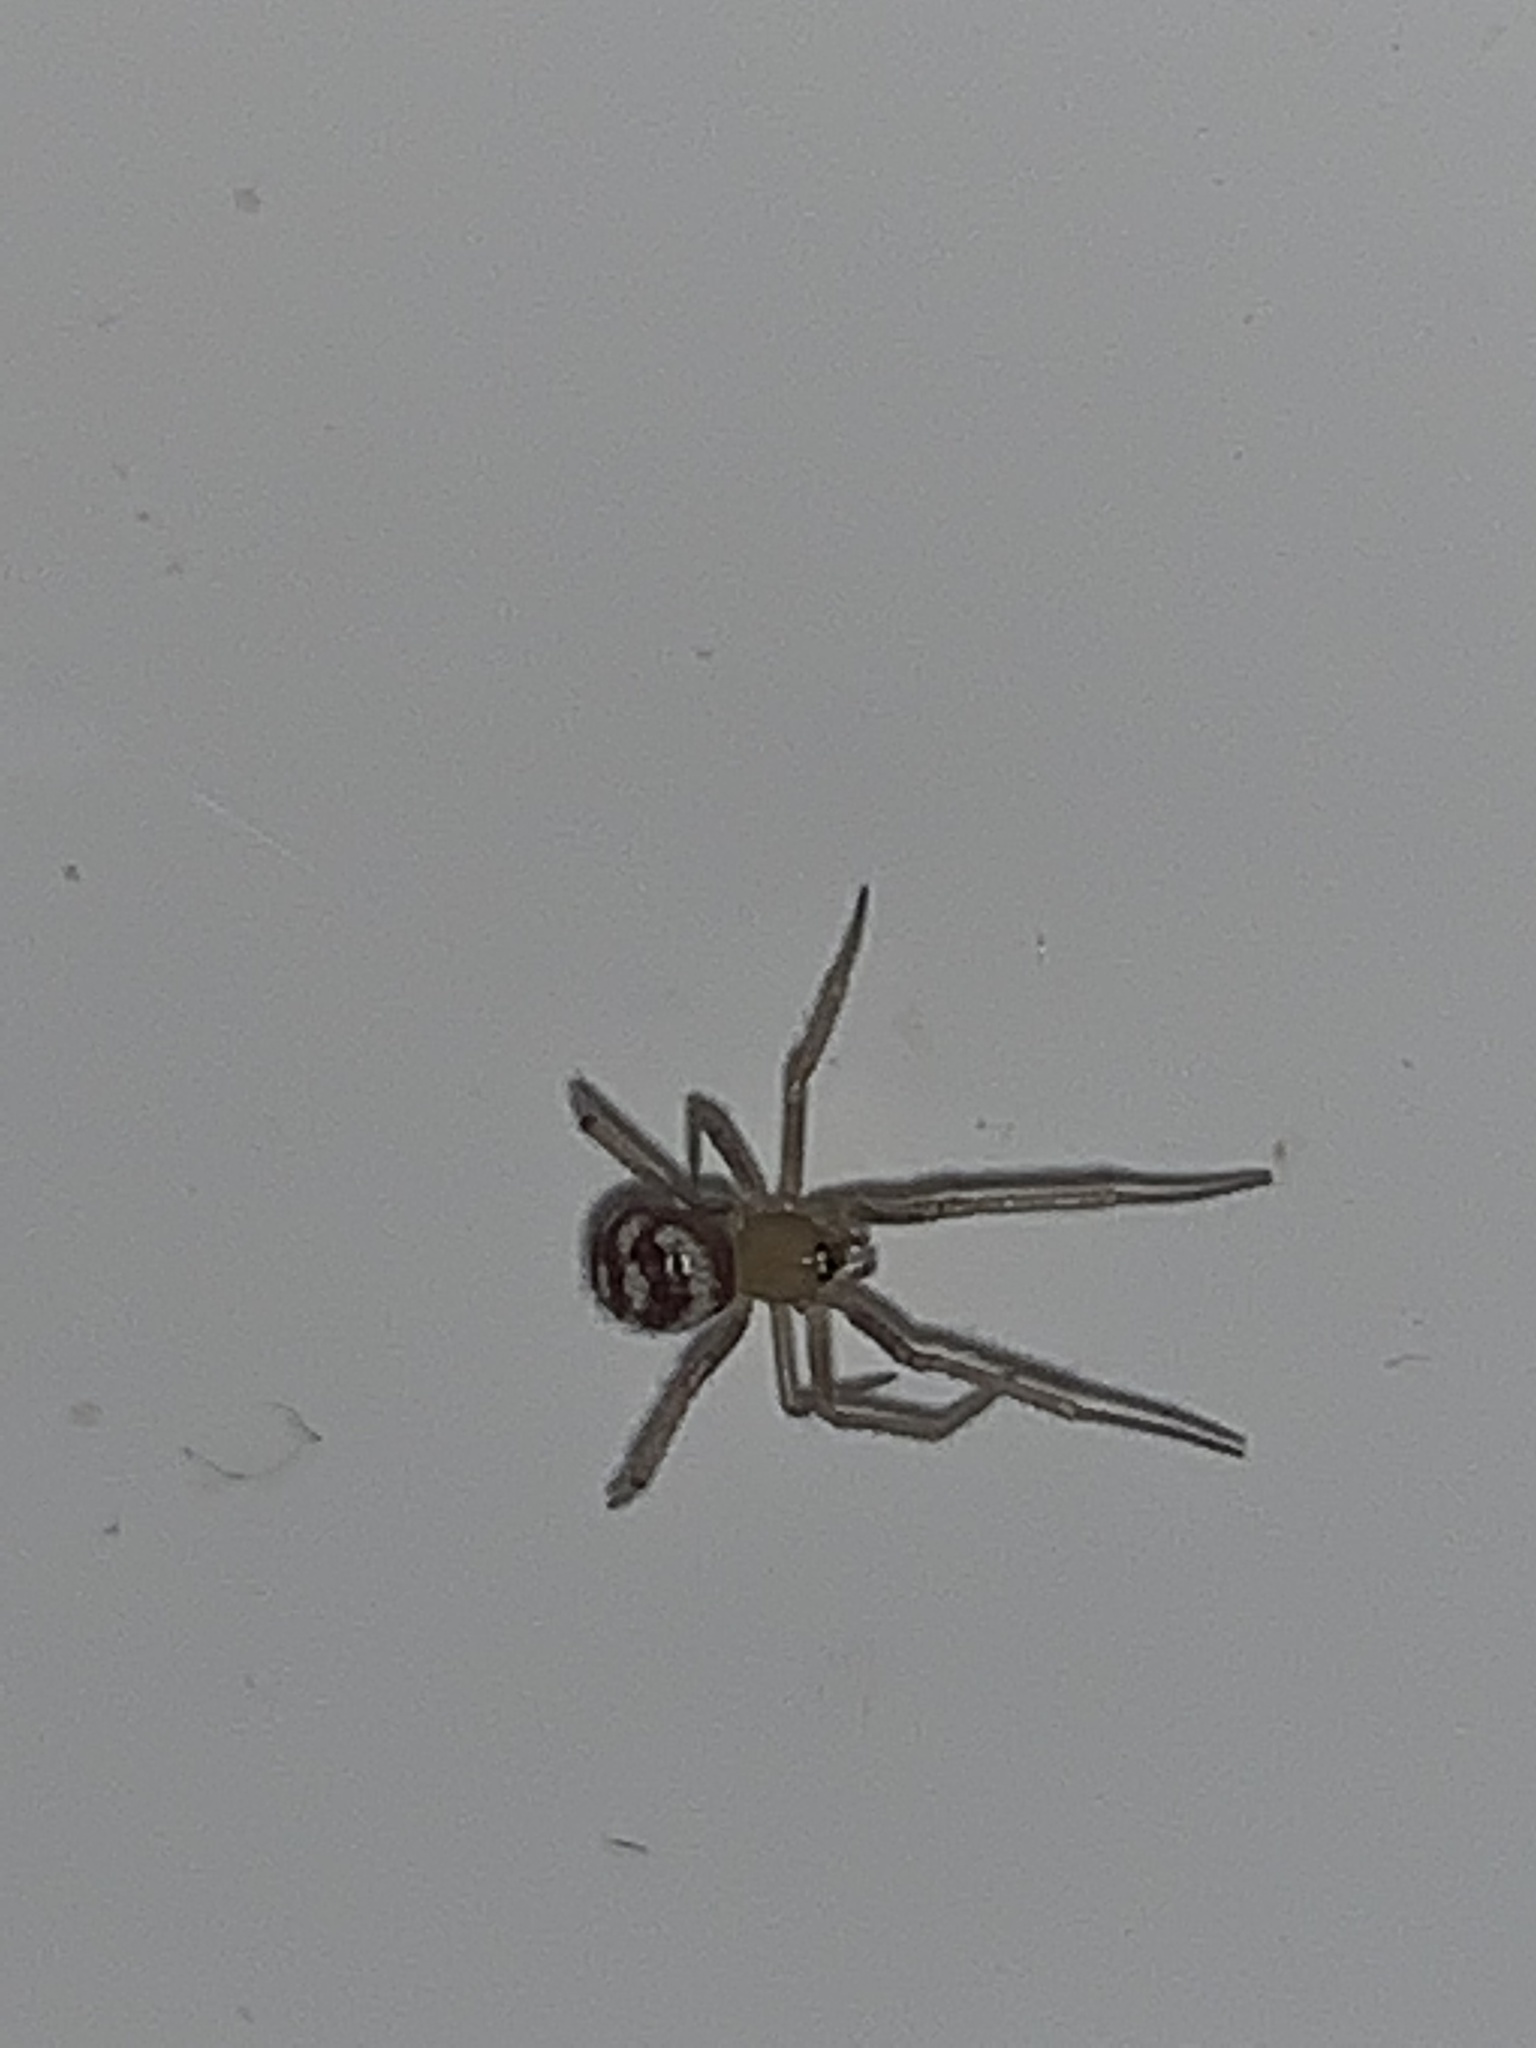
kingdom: Animalia
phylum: Arthropoda
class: Arachnida
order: Araneae
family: Theridiidae
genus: Steatoda
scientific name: Steatoda grossa
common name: False black widow
